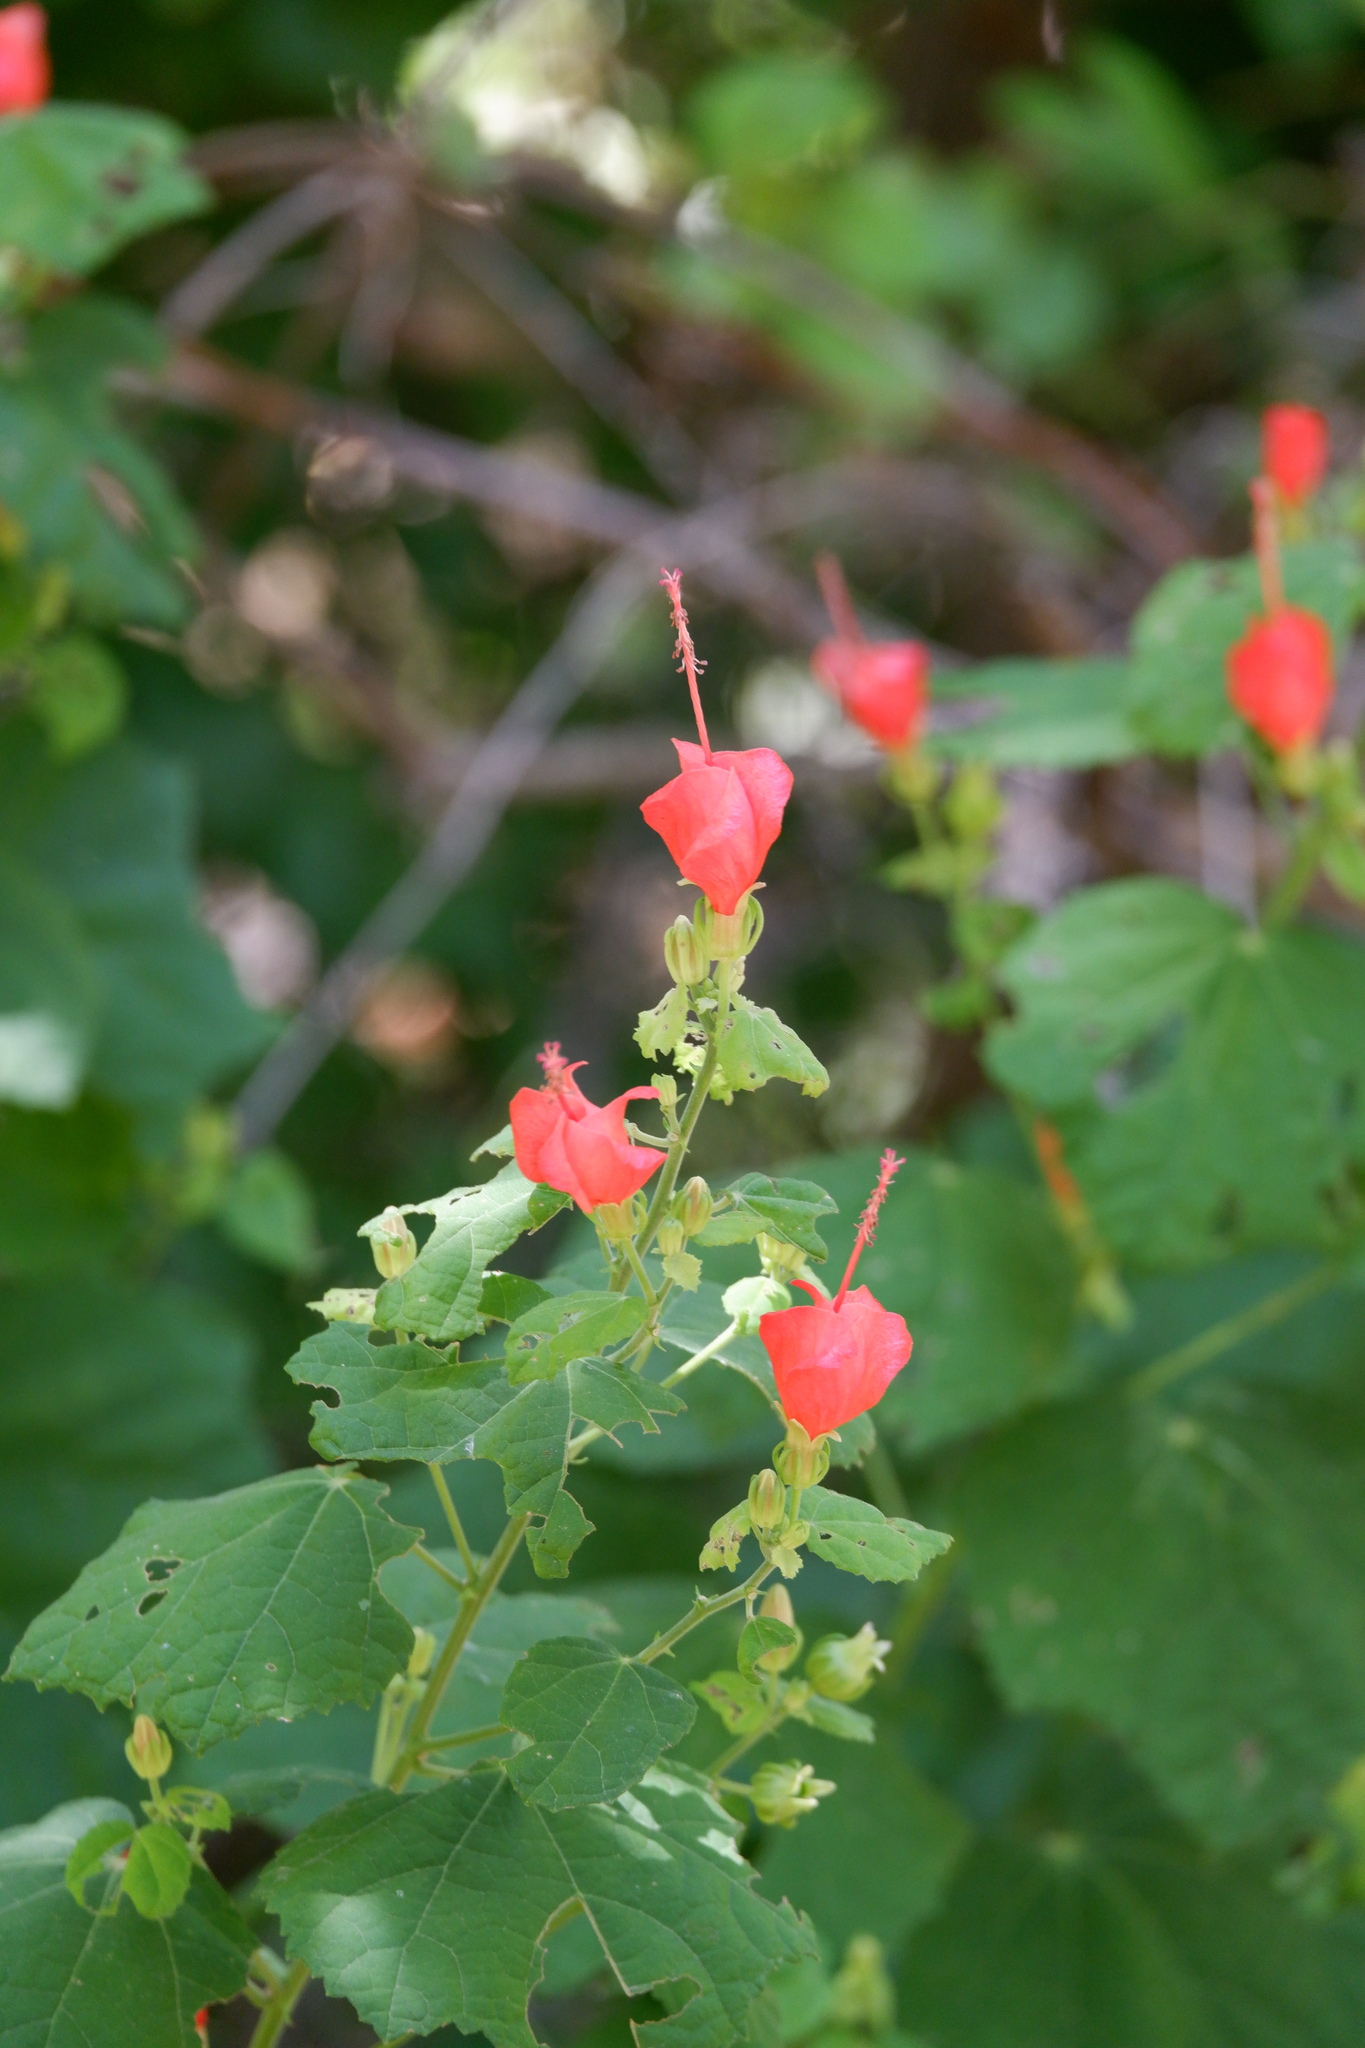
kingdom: Plantae
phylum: Tracheophyta
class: Magnoliopsida
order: Malvales
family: Malvaceae
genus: Malvaviscus
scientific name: Malvaviscus arboreus
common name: Wax mallow
